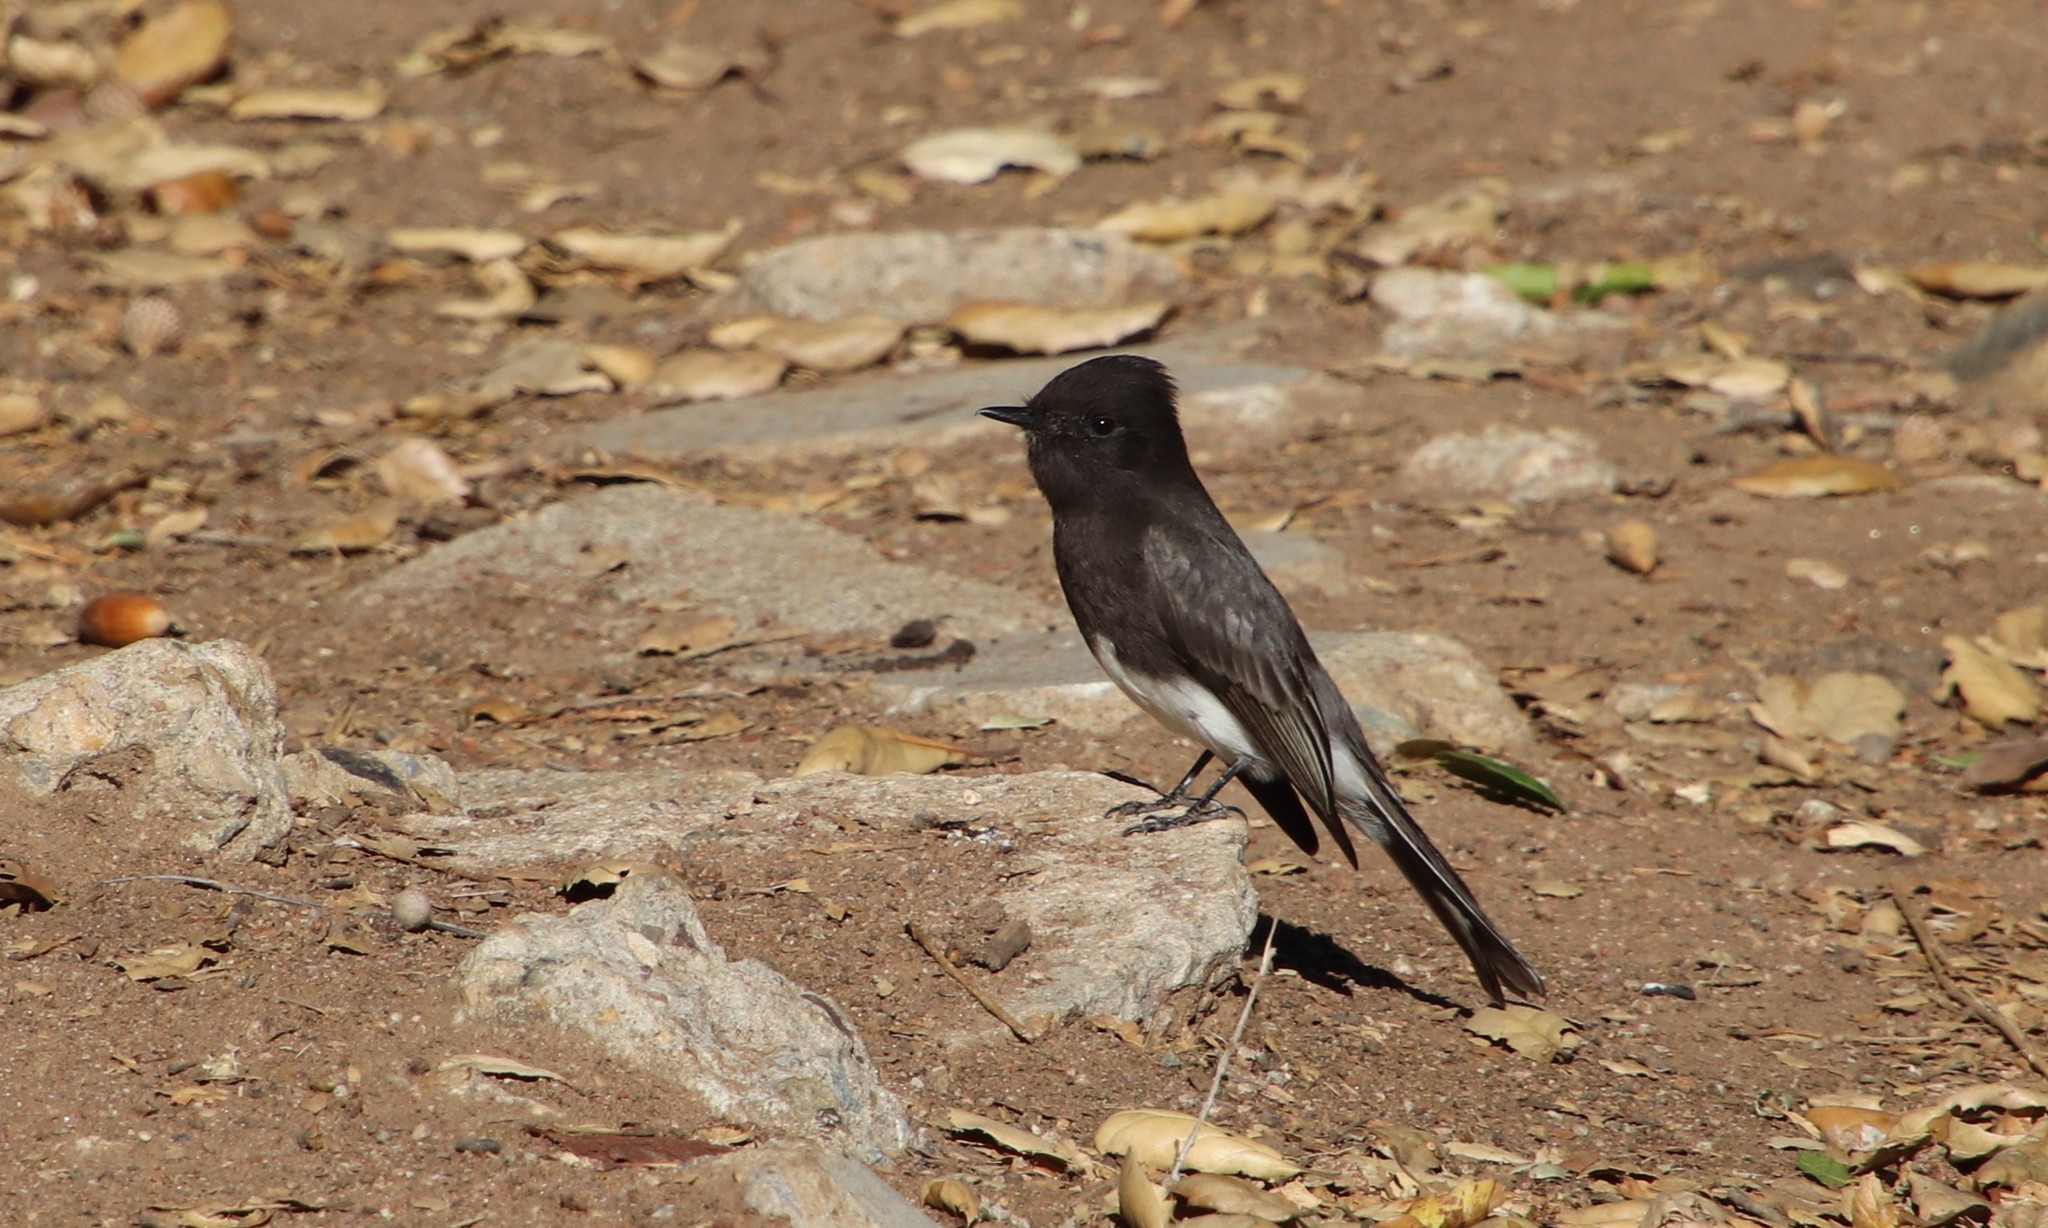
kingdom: Animalia
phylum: Chordata
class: Aves
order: Passeriformes
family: Tyrannidae
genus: Sayornis
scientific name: Sayornis nigricans
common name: Black phoebe
